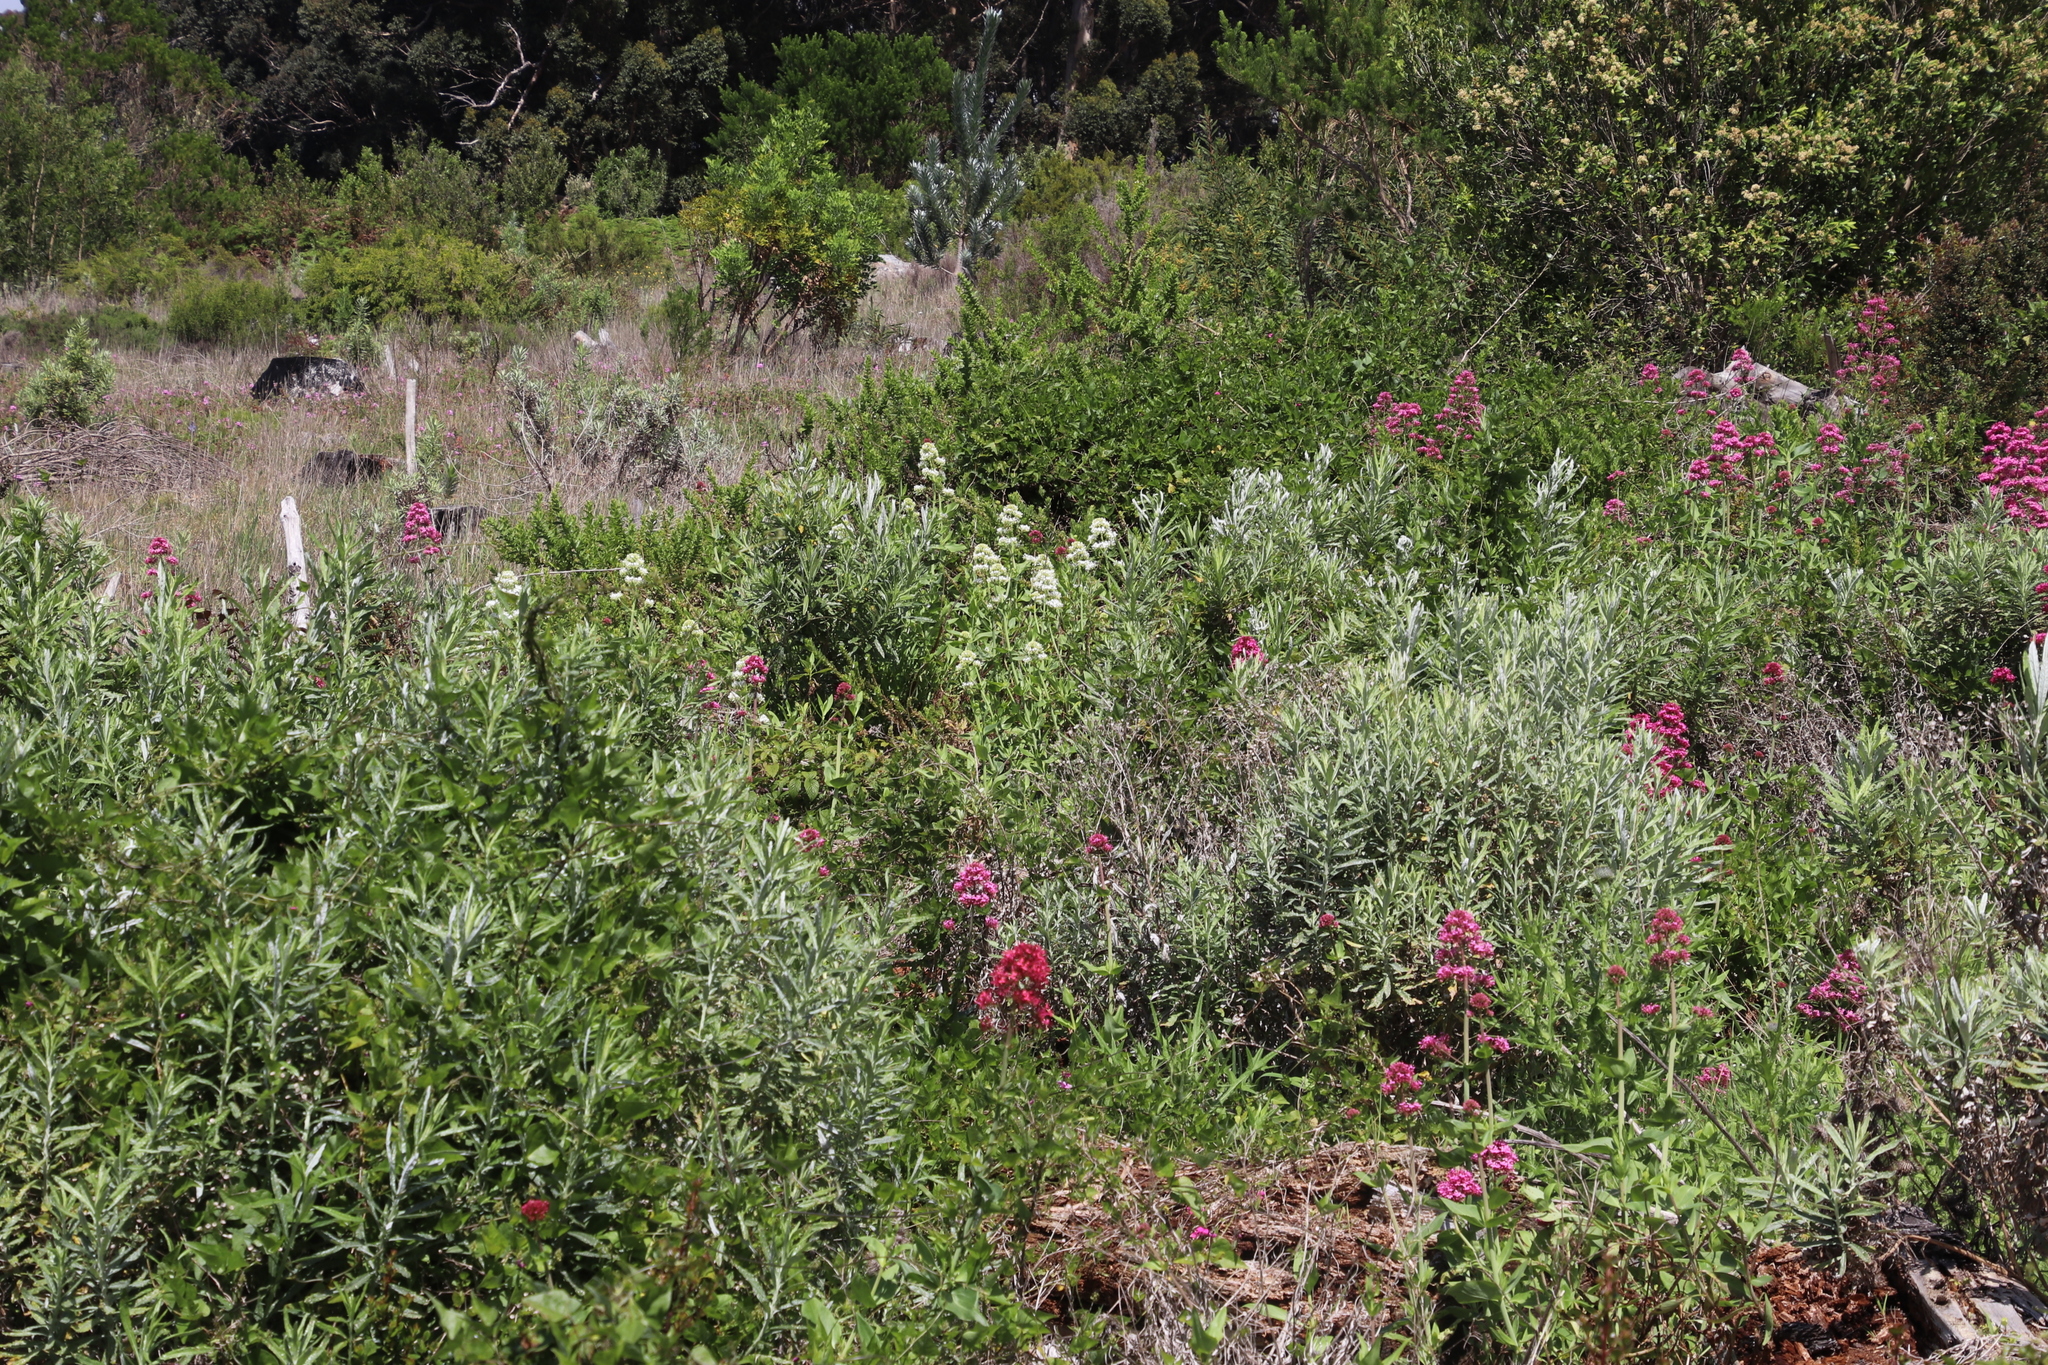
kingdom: Plantae
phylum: Tracheophyta
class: Magnoliopsida
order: Dipsacales
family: Caprifoliaceae
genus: Centranthus
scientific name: Centranthus ruber
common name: Red valerian
